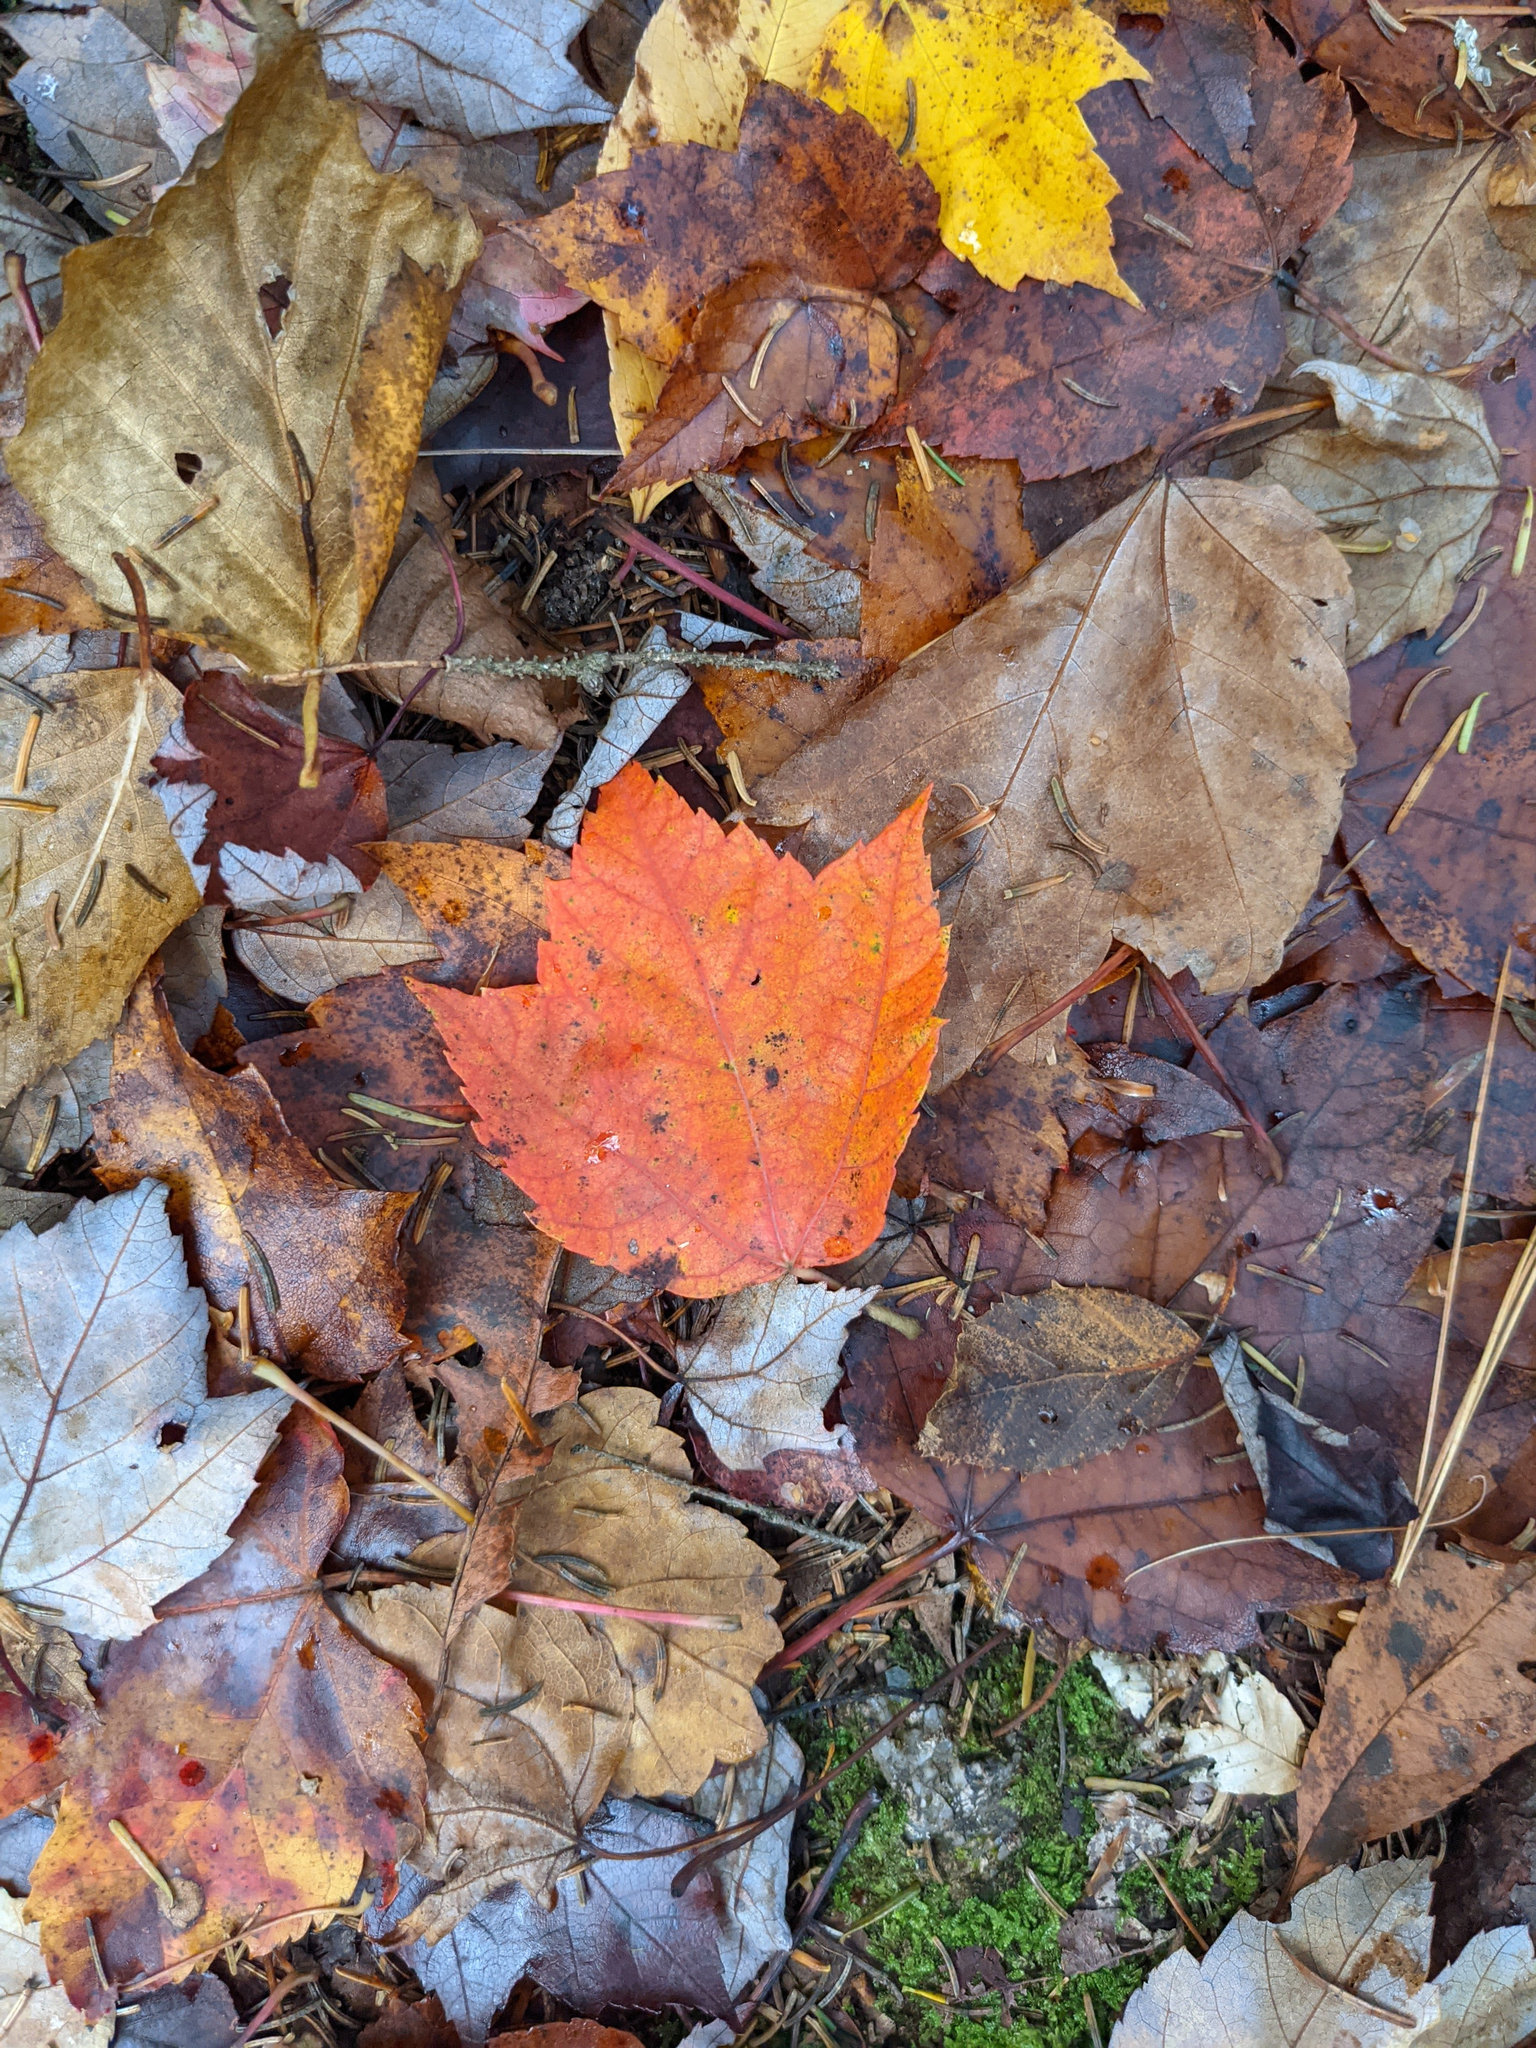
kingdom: Plantae
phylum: Tracheophyta
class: Magnoliopsida
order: Sapindales
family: Sapindaceae
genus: Acer
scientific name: Acer rubrum
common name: Red maple
